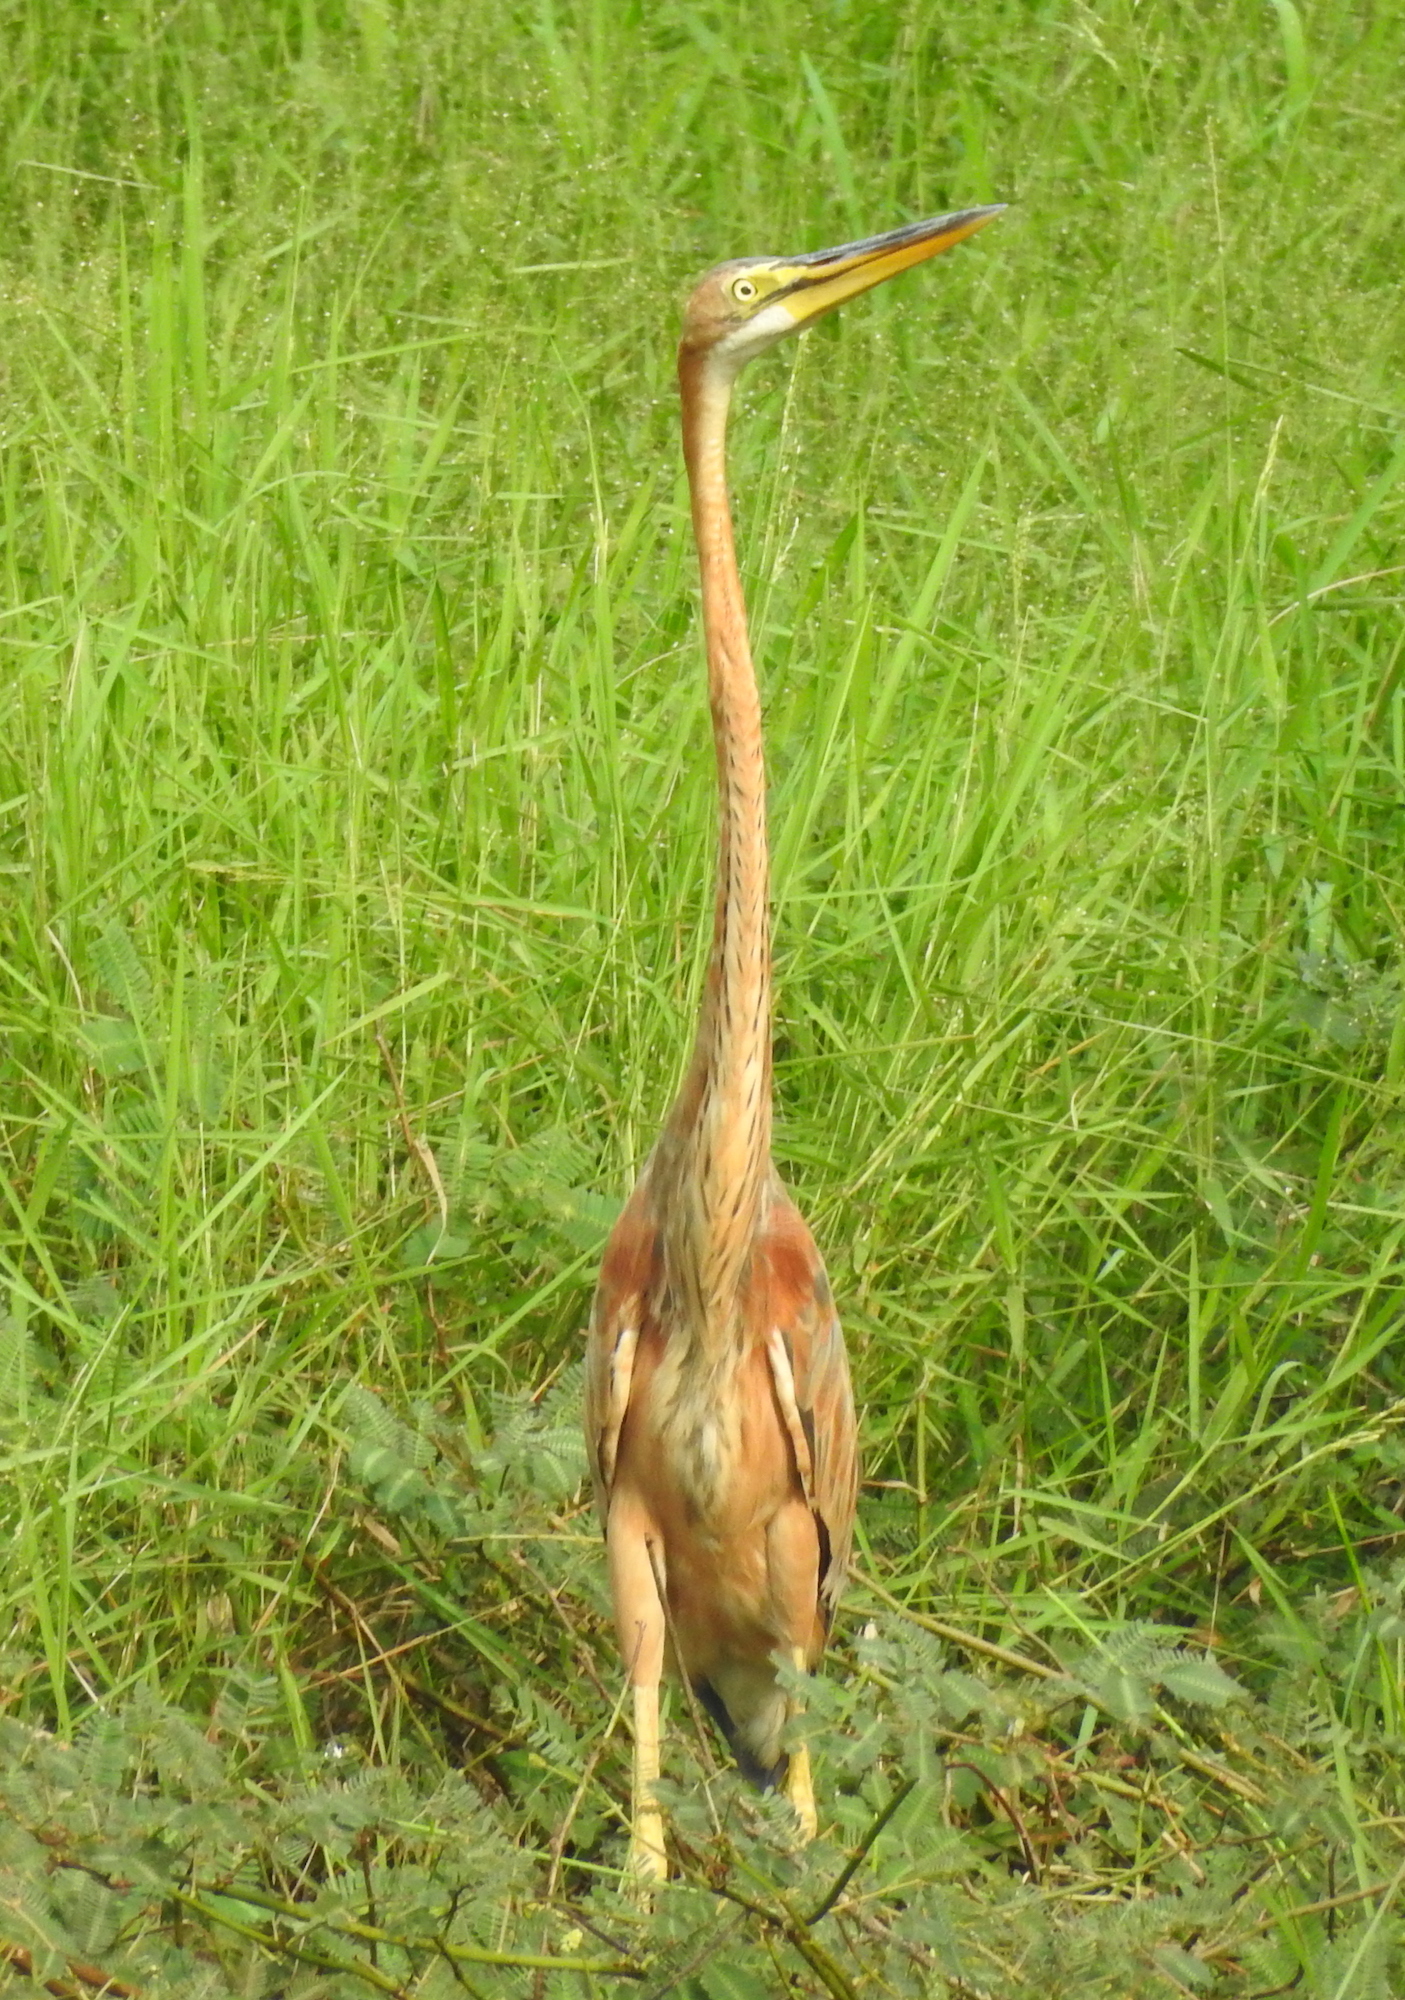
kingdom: Animalia
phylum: Chordata
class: Aves
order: Pelecaniformes
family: Ardeidae
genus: Ardea
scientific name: Ardea purpurea
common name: Purple heron
